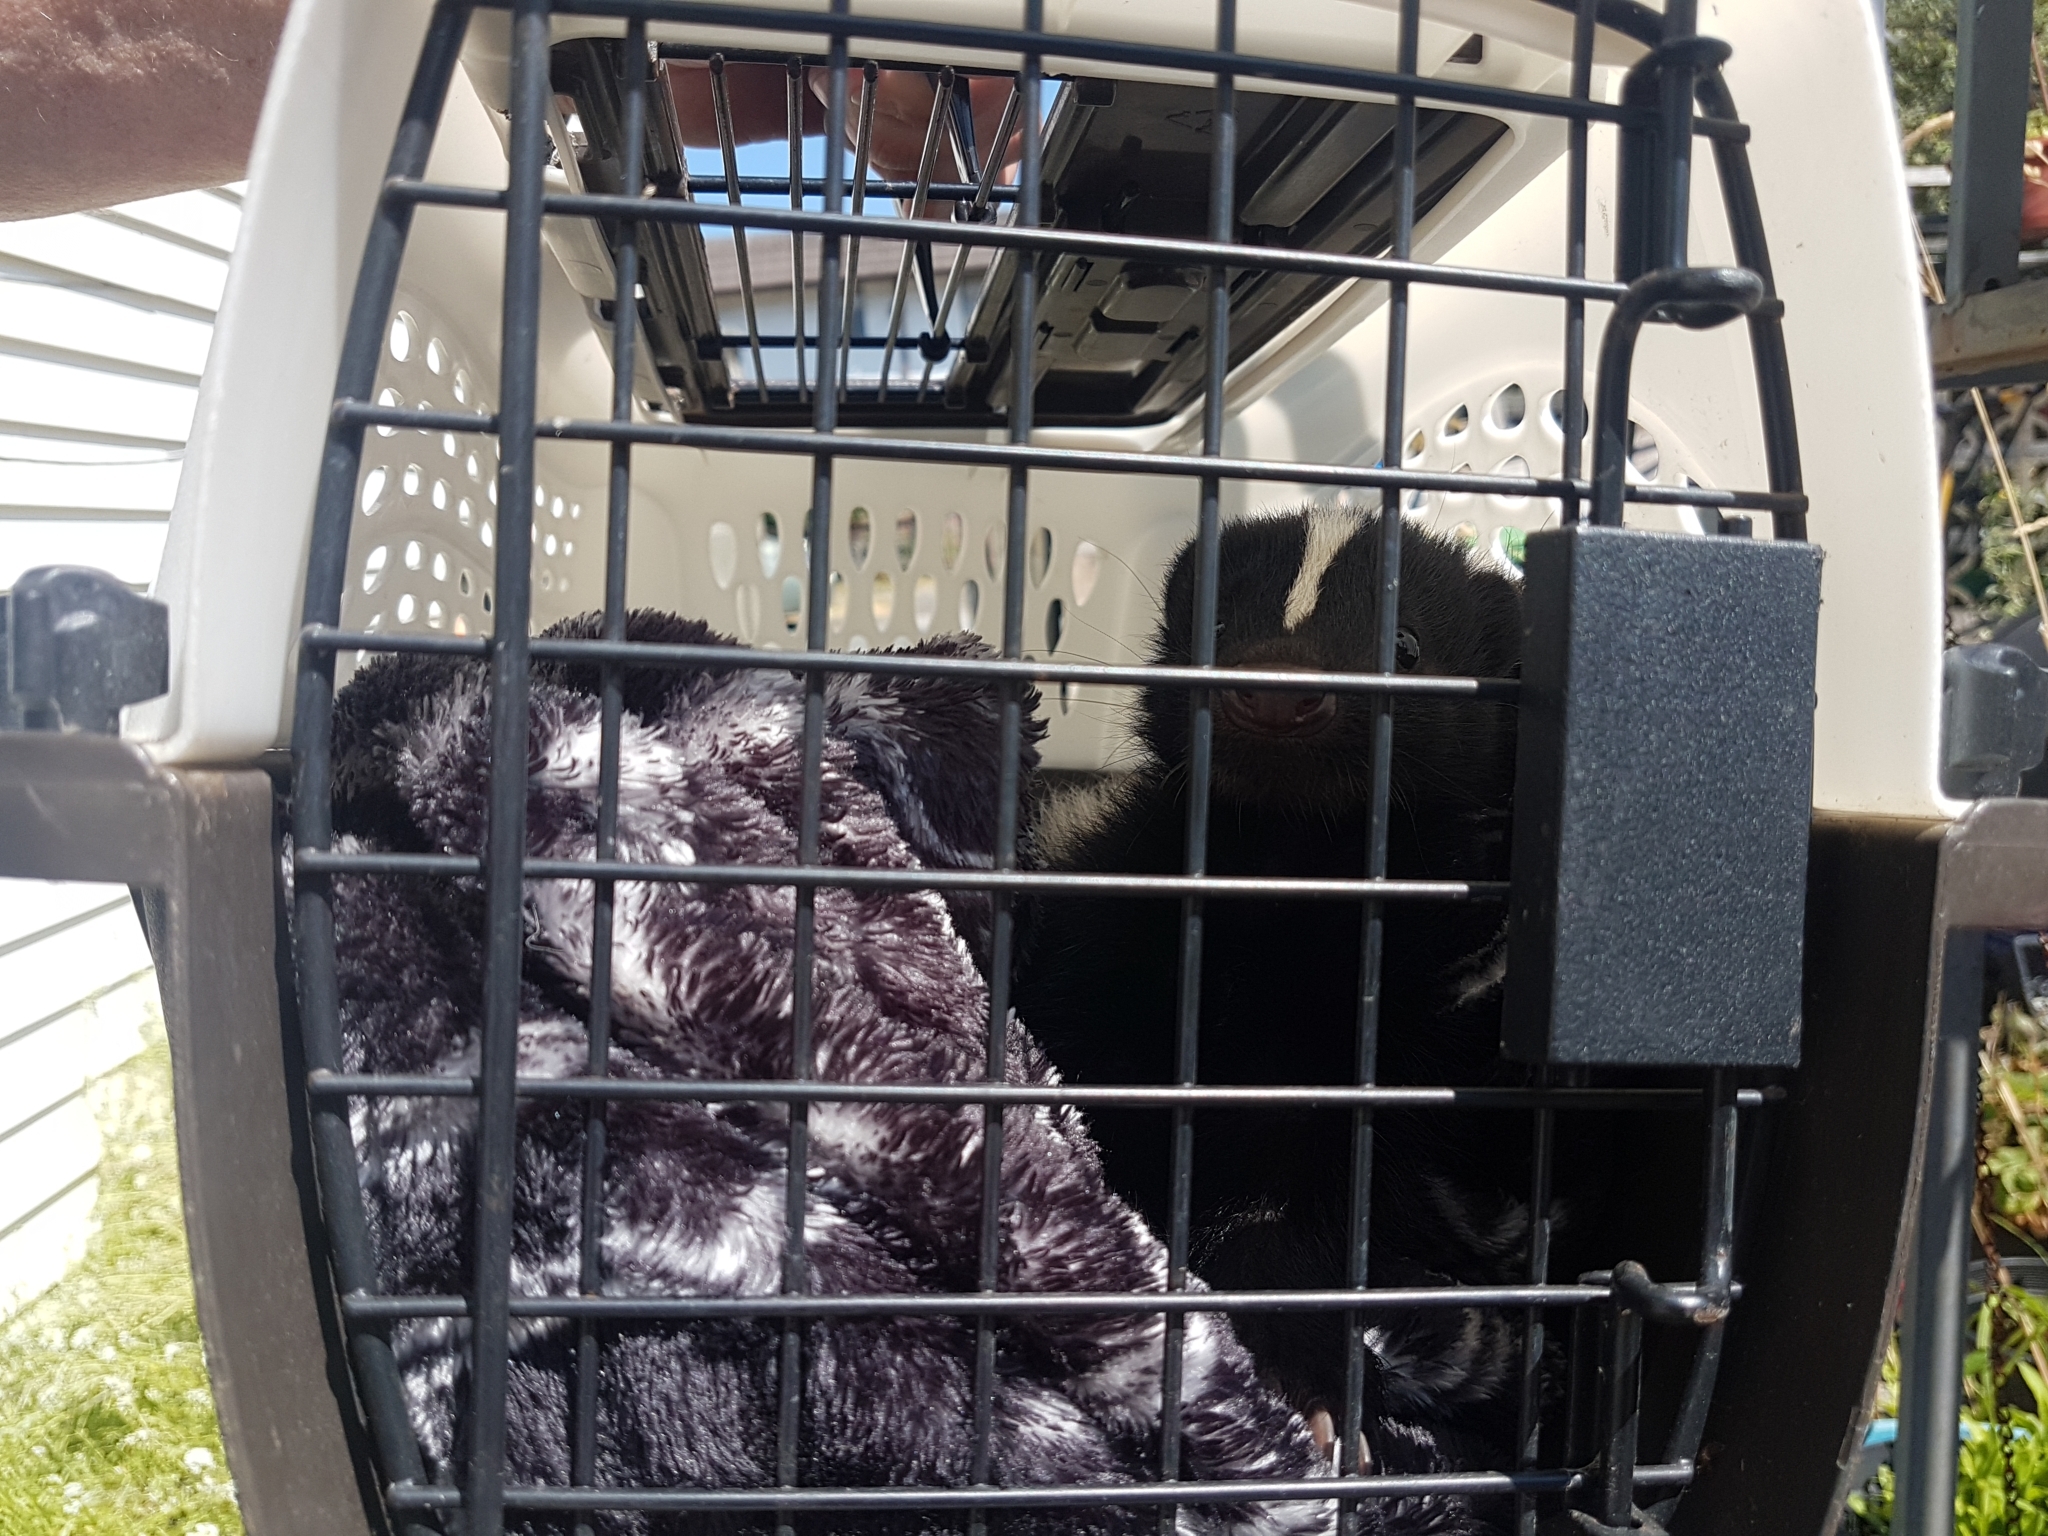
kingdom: Animalia
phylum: Chordata
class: Mammalia
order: Carnivora
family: Mephitidae
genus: Mephitis
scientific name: Mephitis mephitis
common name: Striped skunk
